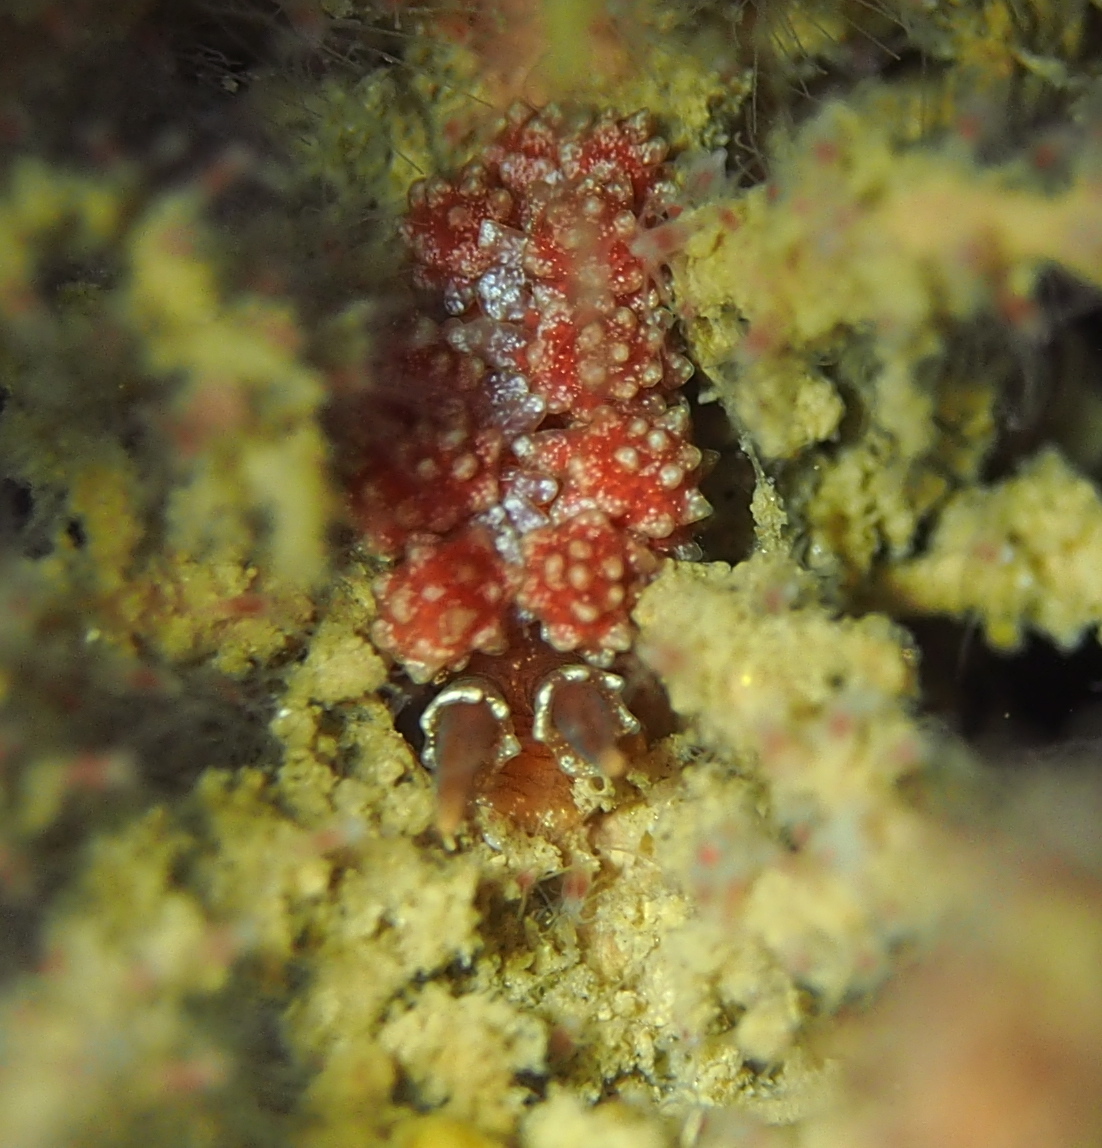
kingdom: Animalia
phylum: Mollusca
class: Gastropoda
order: Nudibranchia
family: Dotidae
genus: Doto
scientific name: Doto fragilis
